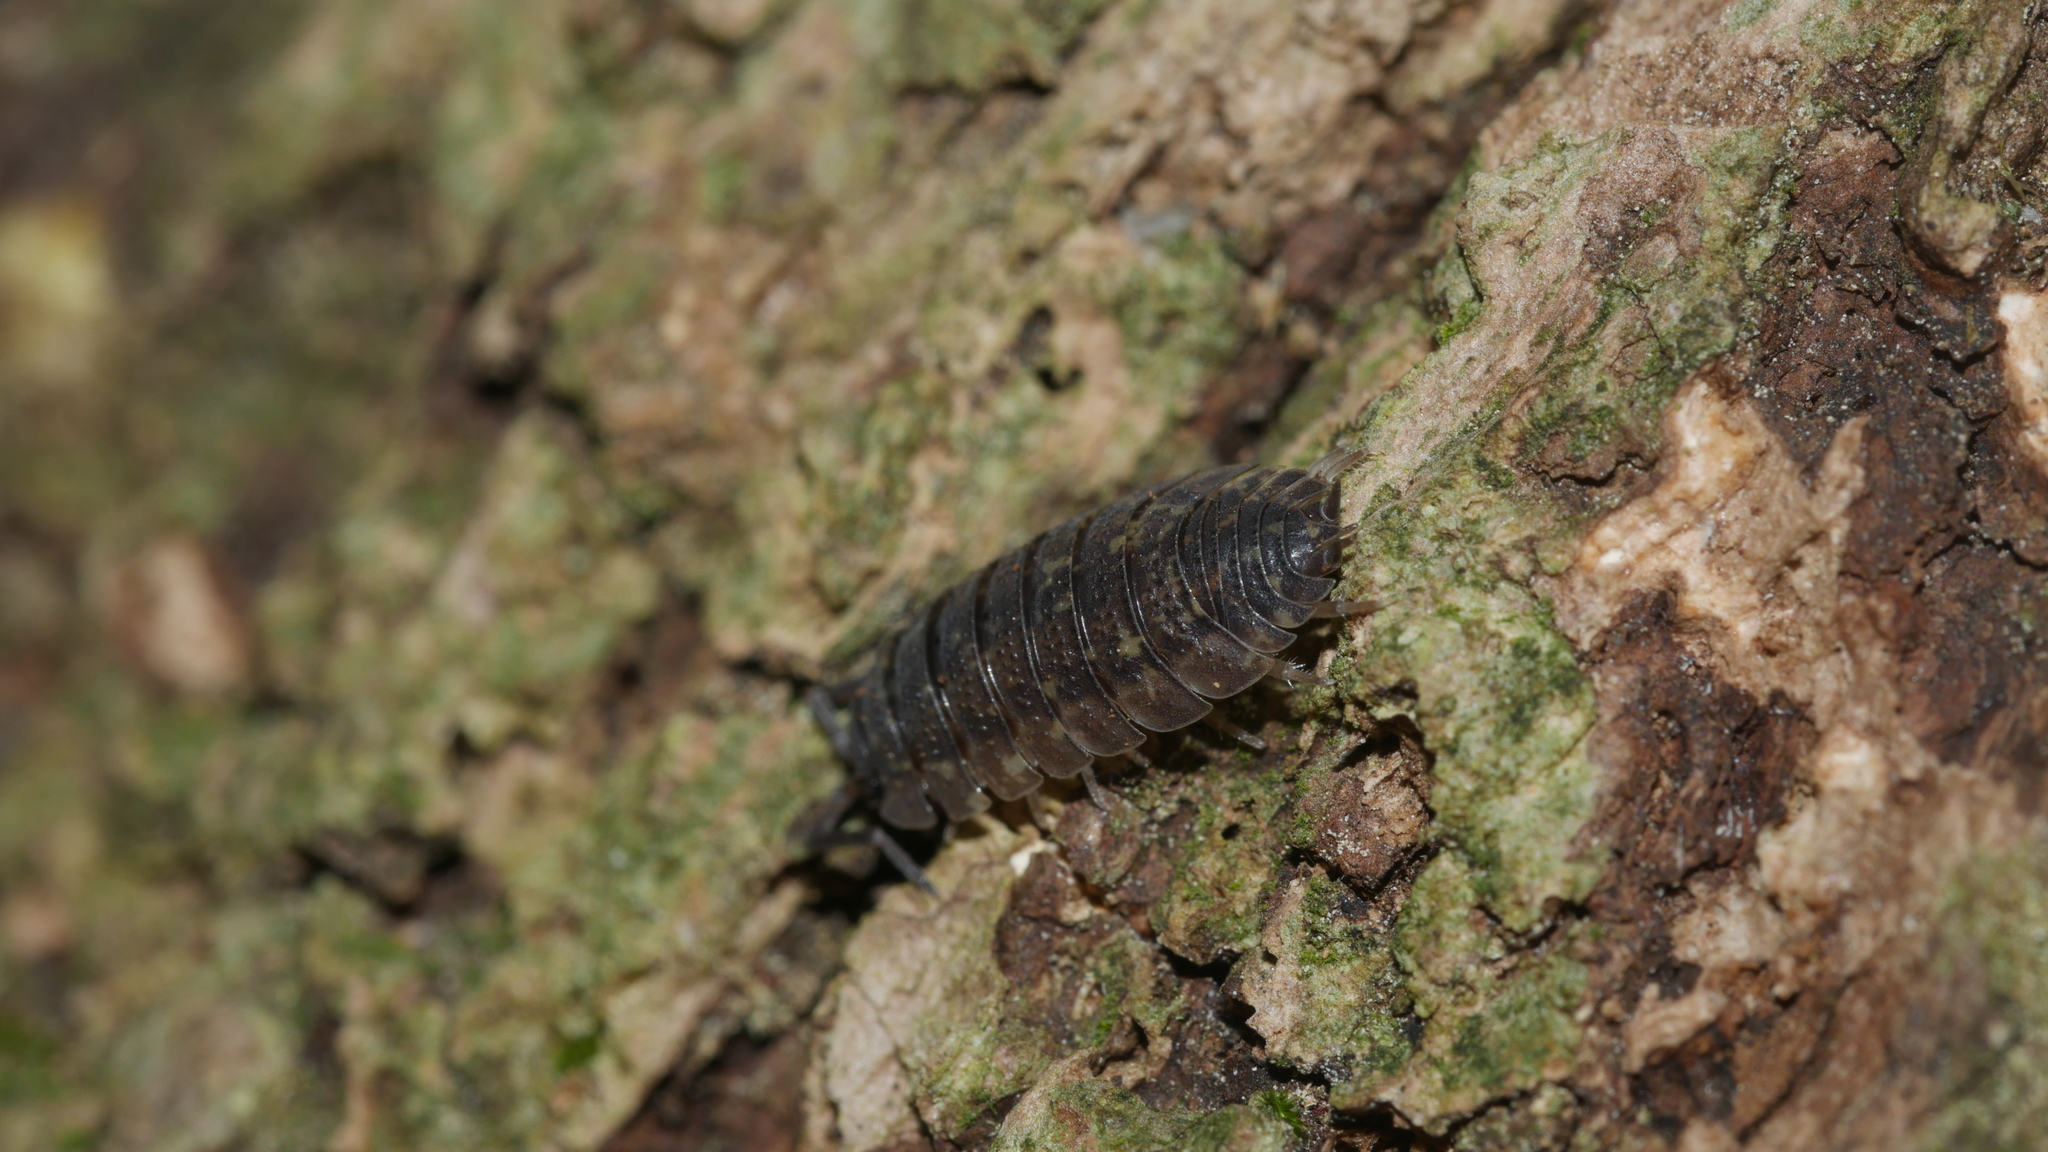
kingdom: Animalia
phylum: Arthropoda
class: Malacostraca
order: Isopoda
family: Porcellionidae
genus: Porcellio
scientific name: Porcellio scaber
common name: Common rough woodlouse
